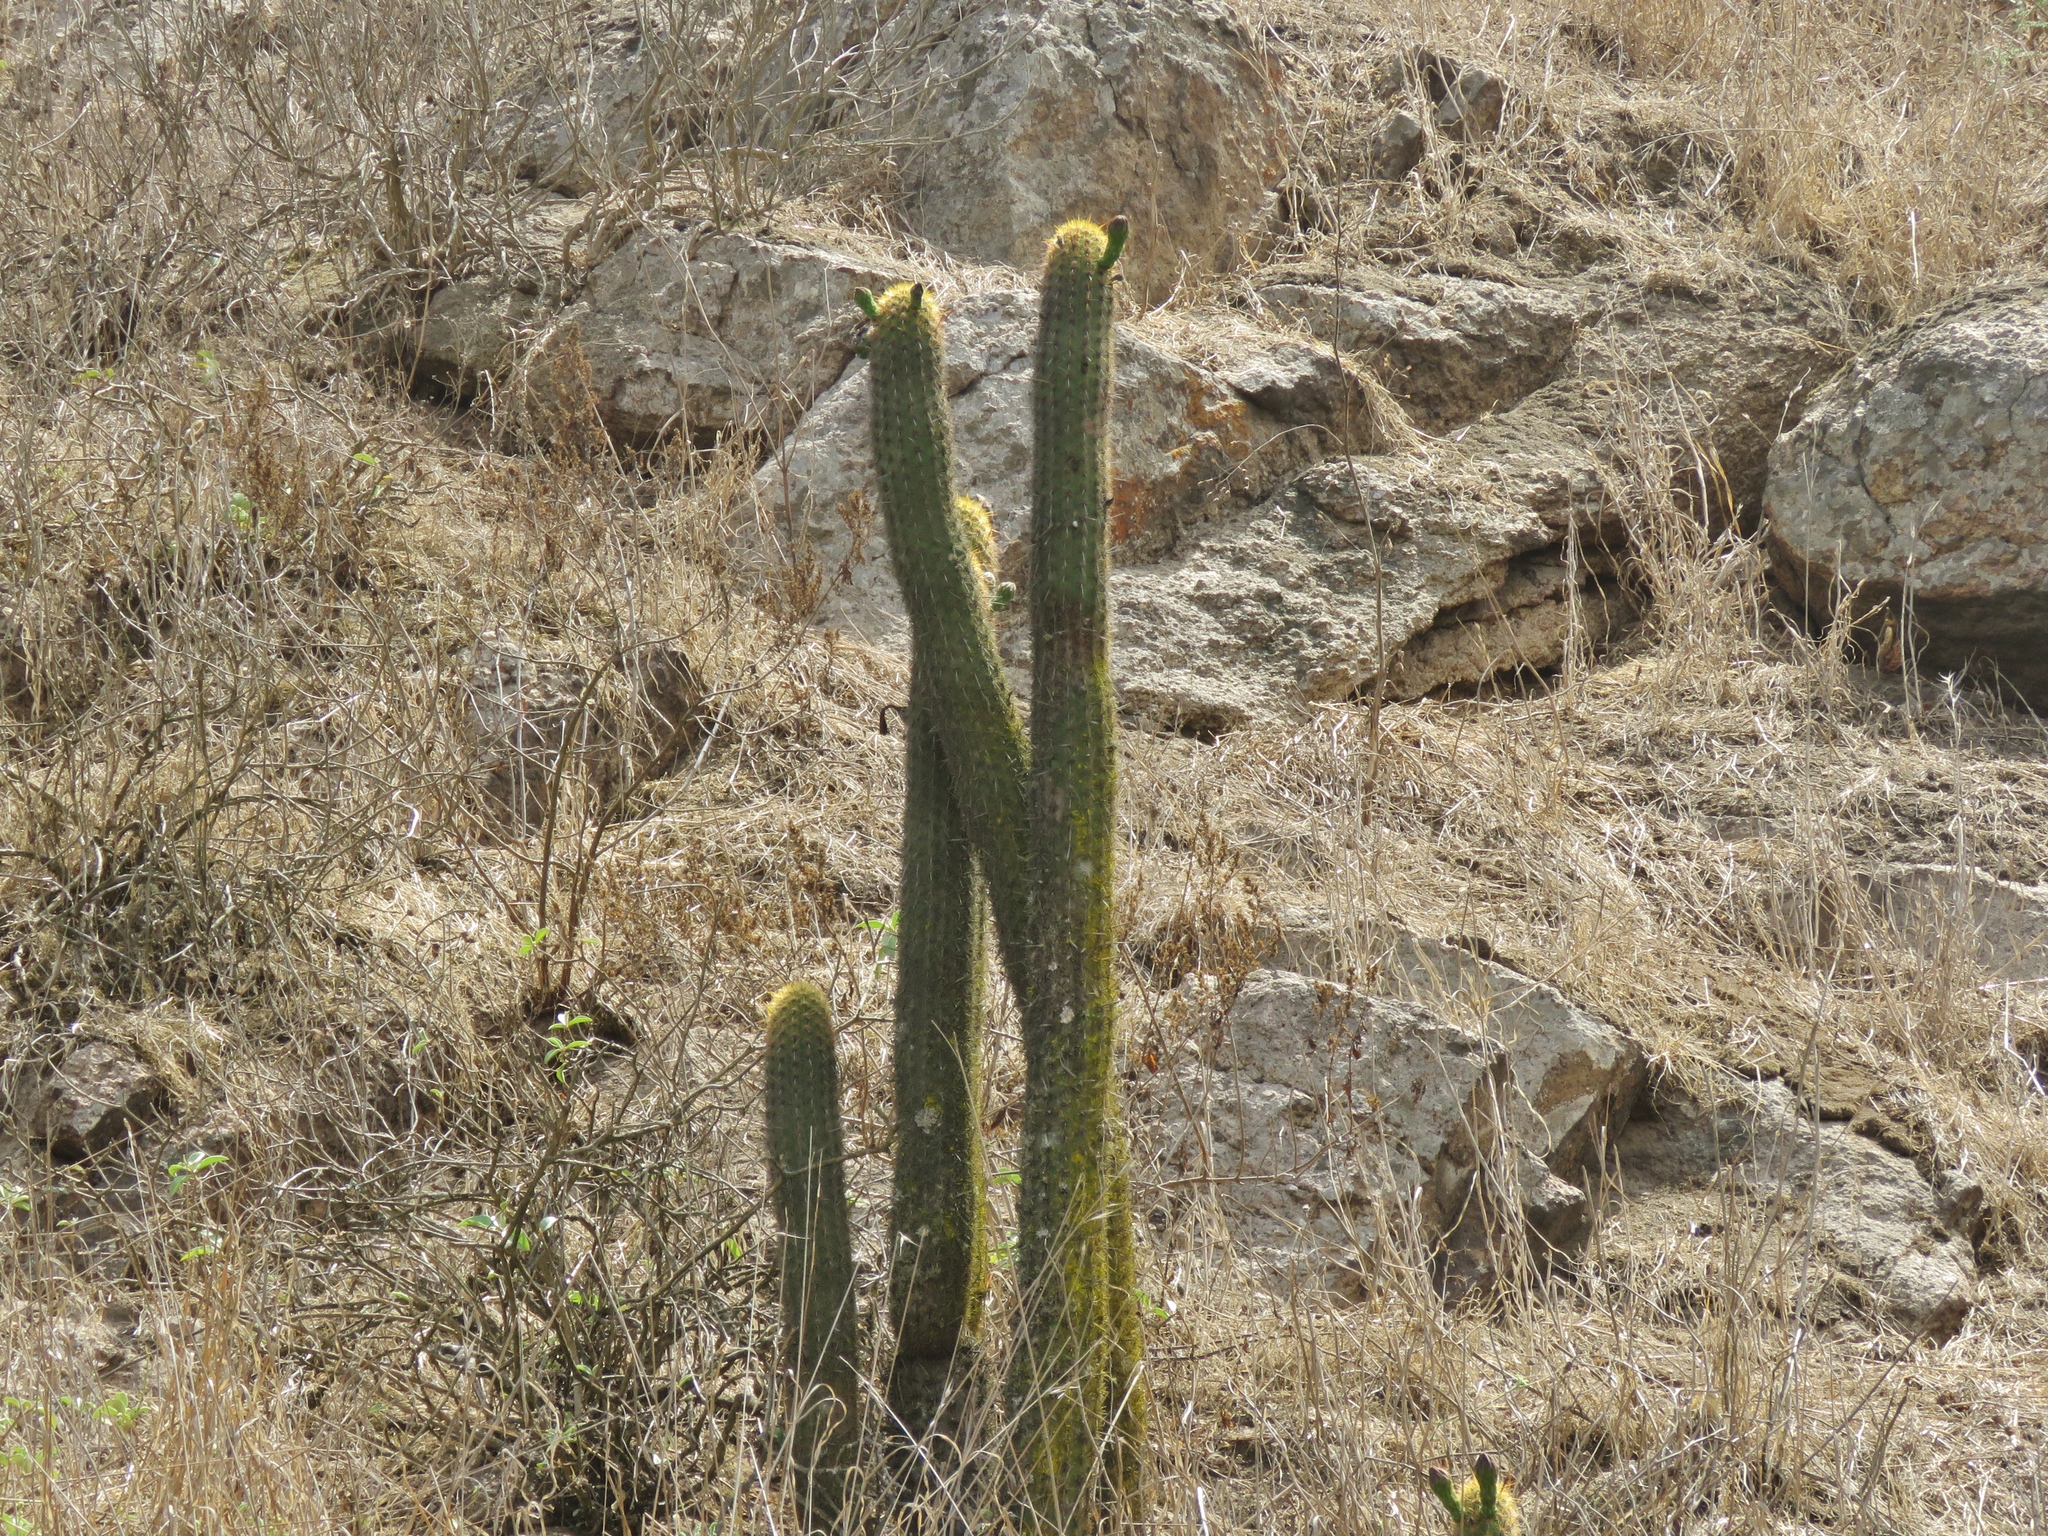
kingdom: Plantae
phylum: Tracheophyta
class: Magnoliopsida
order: Caryophyllales
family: Cactaceae
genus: Haageocereus
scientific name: Haageocereus acranthus
